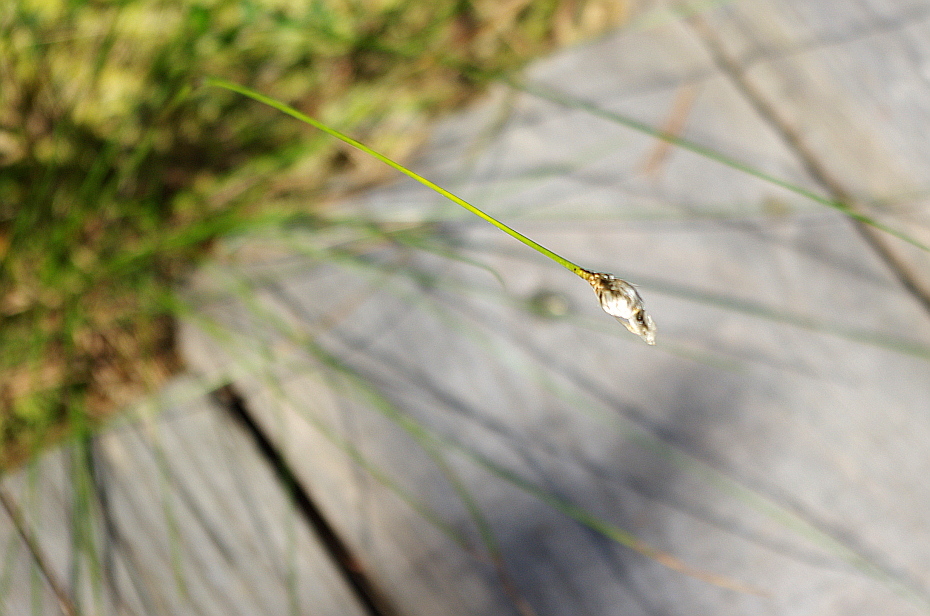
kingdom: Plantae
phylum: Tracheophyta
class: Liliopsida
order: Poales
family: Cyperaceae
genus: Eriophorum
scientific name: Eriophorum vaginatum
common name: Hare's-tail cottongrass
